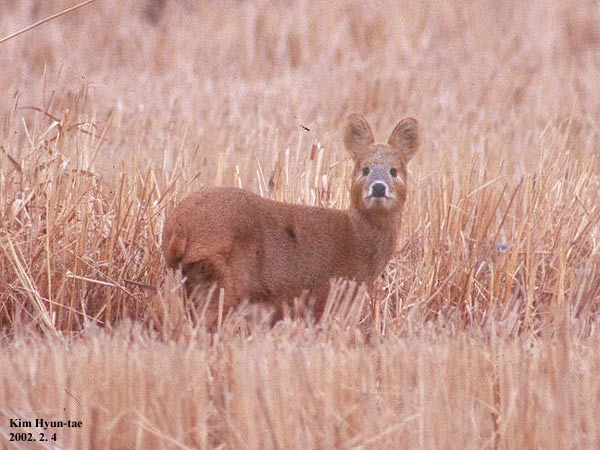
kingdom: Animalia
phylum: Chordata
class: Mammalia
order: Artiodactyla
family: Cervidae
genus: Hydropotes
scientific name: Hydropotes inermis
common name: Chinese water deer
